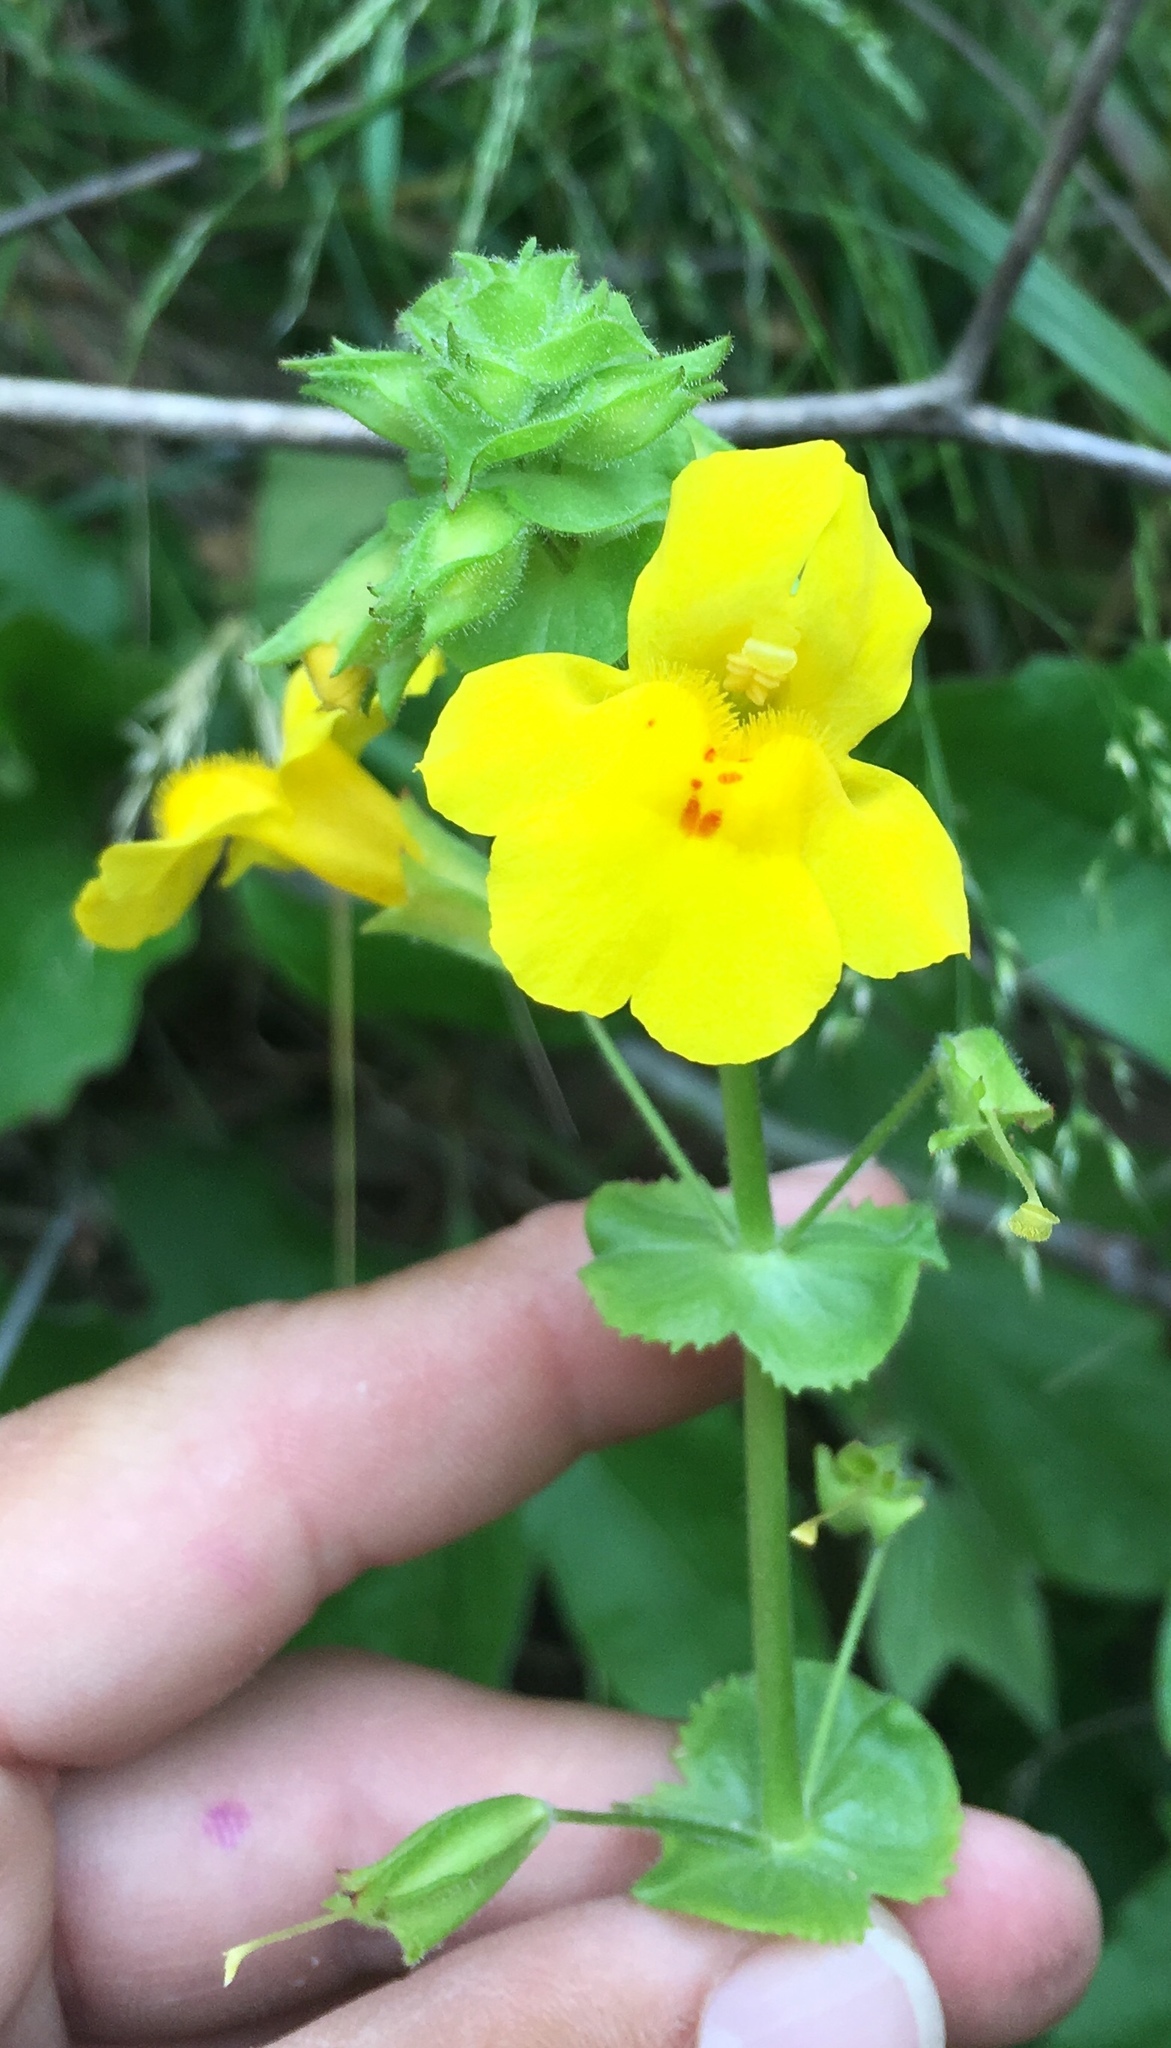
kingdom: Plantae
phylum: Tracheophyta
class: Magnoliopsida
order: Lamiales
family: Phrymaceae
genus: Erythranthe
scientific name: Erythranthe grandis
